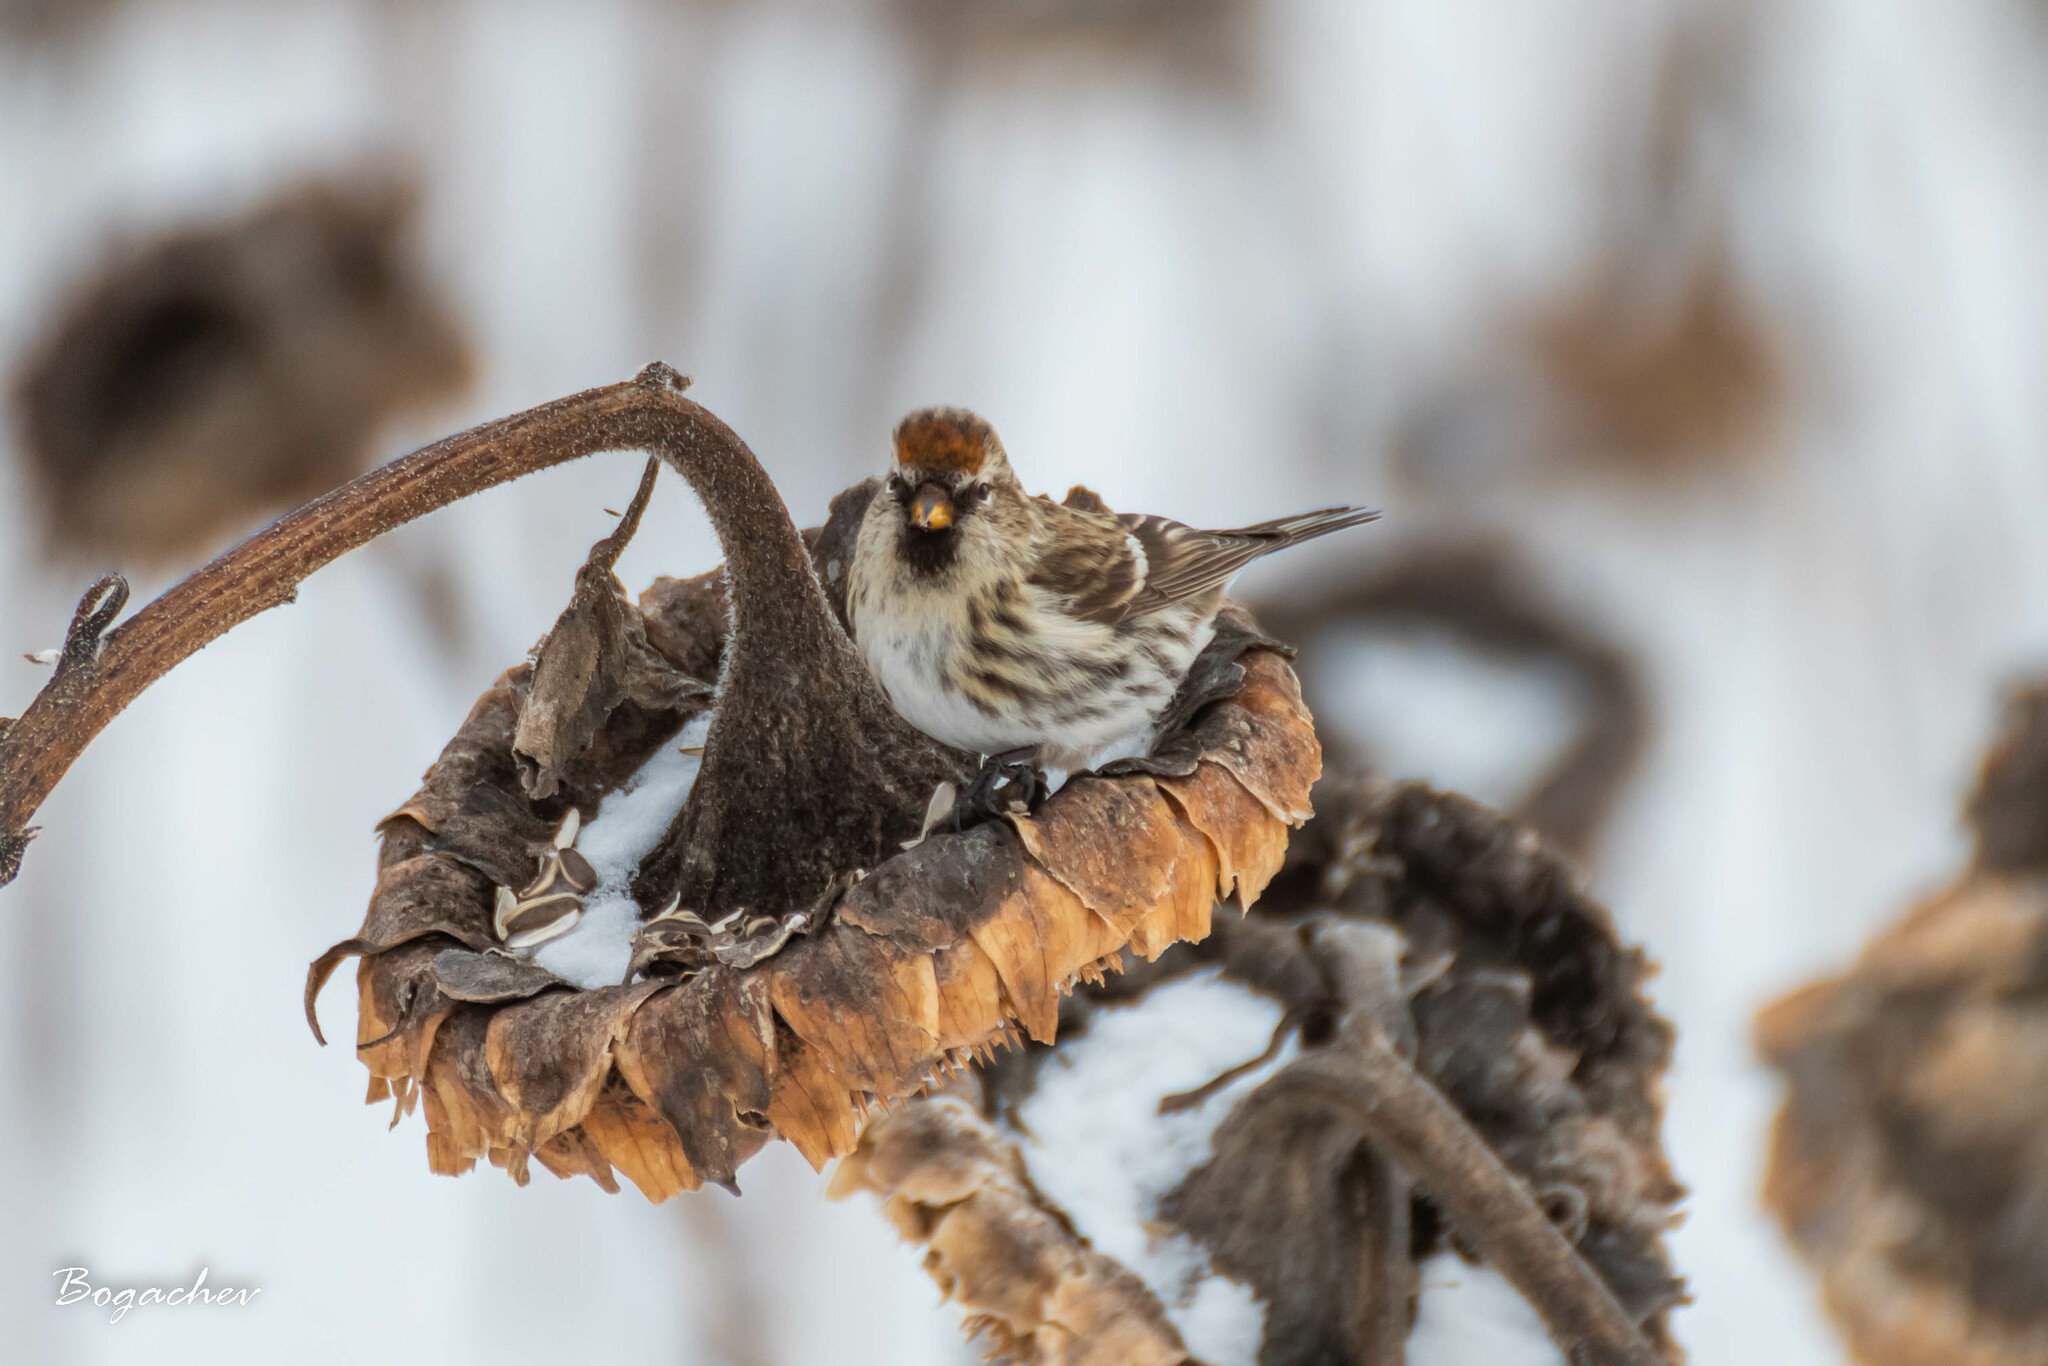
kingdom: Animalia
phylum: Chordata
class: Aves
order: Passeriformes
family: Fringillidae
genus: Acanthis
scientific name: Acanthis flammea
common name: Common redpoll
